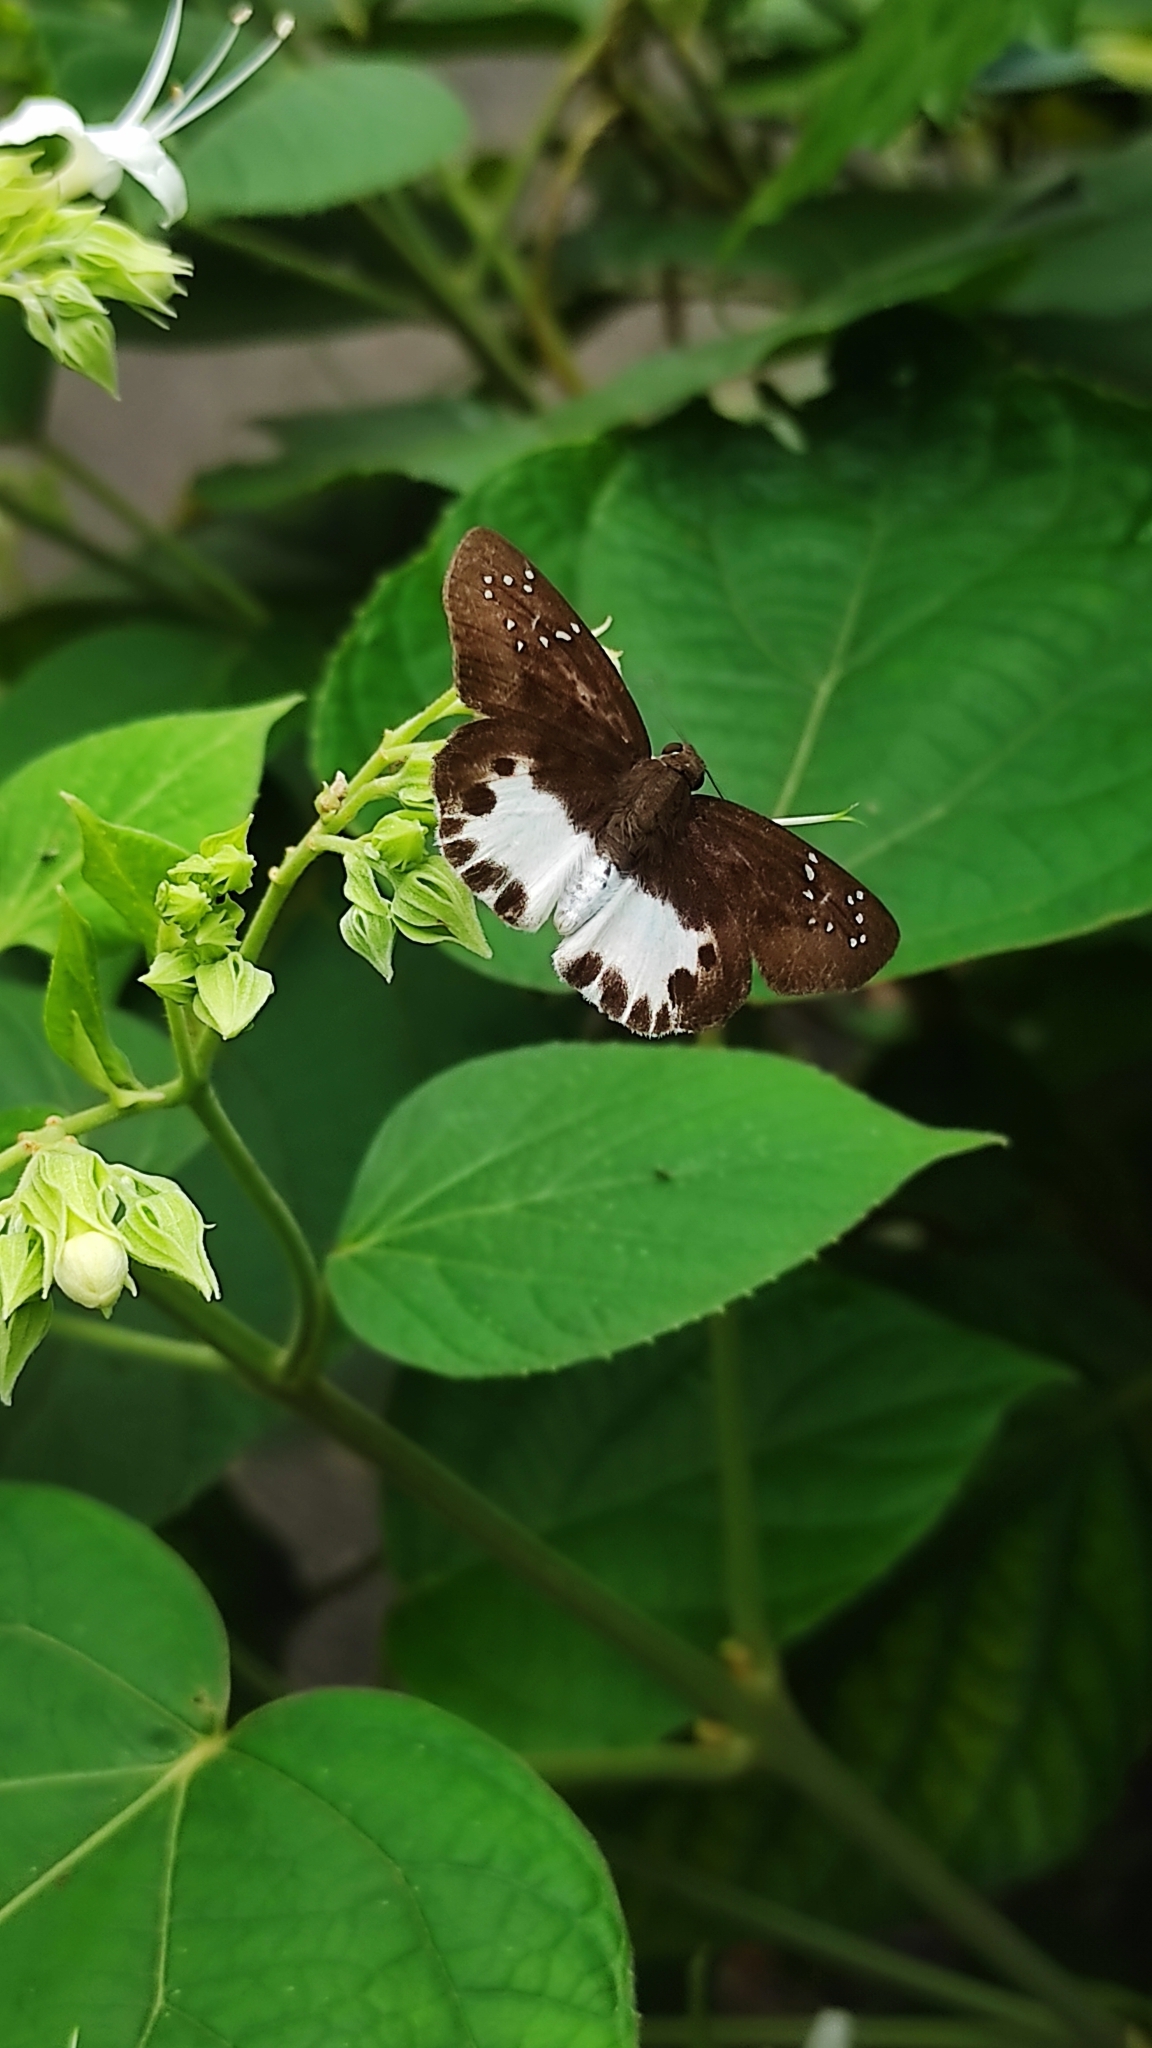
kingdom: Animalia
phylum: Arthropoda
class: Insecta
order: Lepidoptera
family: Hesperiidae
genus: Tagiades
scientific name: Tagiades litigiosa
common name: Water snow flat
